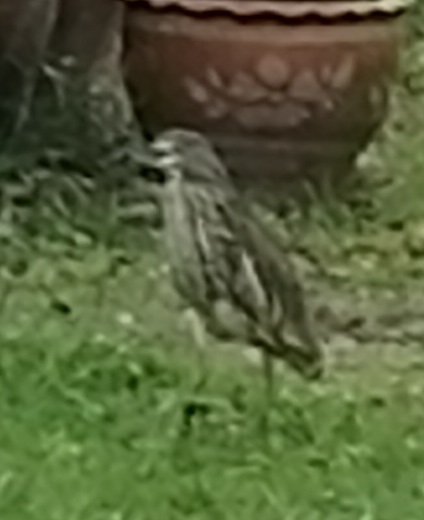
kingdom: Animalia
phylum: Chordata
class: Aves
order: Pelecaniformes
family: Ardeidae
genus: Ardeola
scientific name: Ardeola
